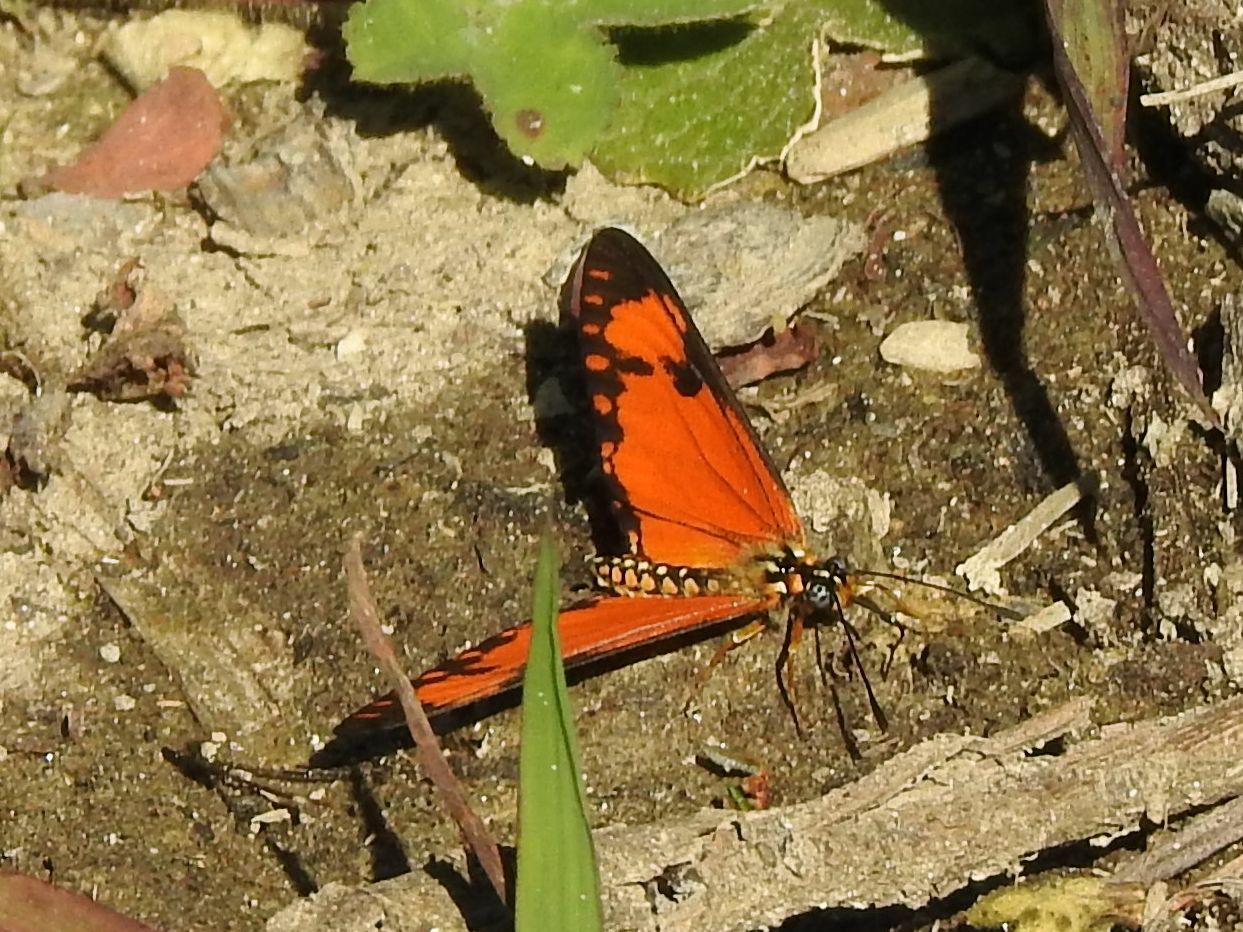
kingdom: Animalia
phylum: Arthropoda
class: Insecta
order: Lepidoptera
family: Nymphalidae
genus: Acraea
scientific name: Acraea Telchinia serena
